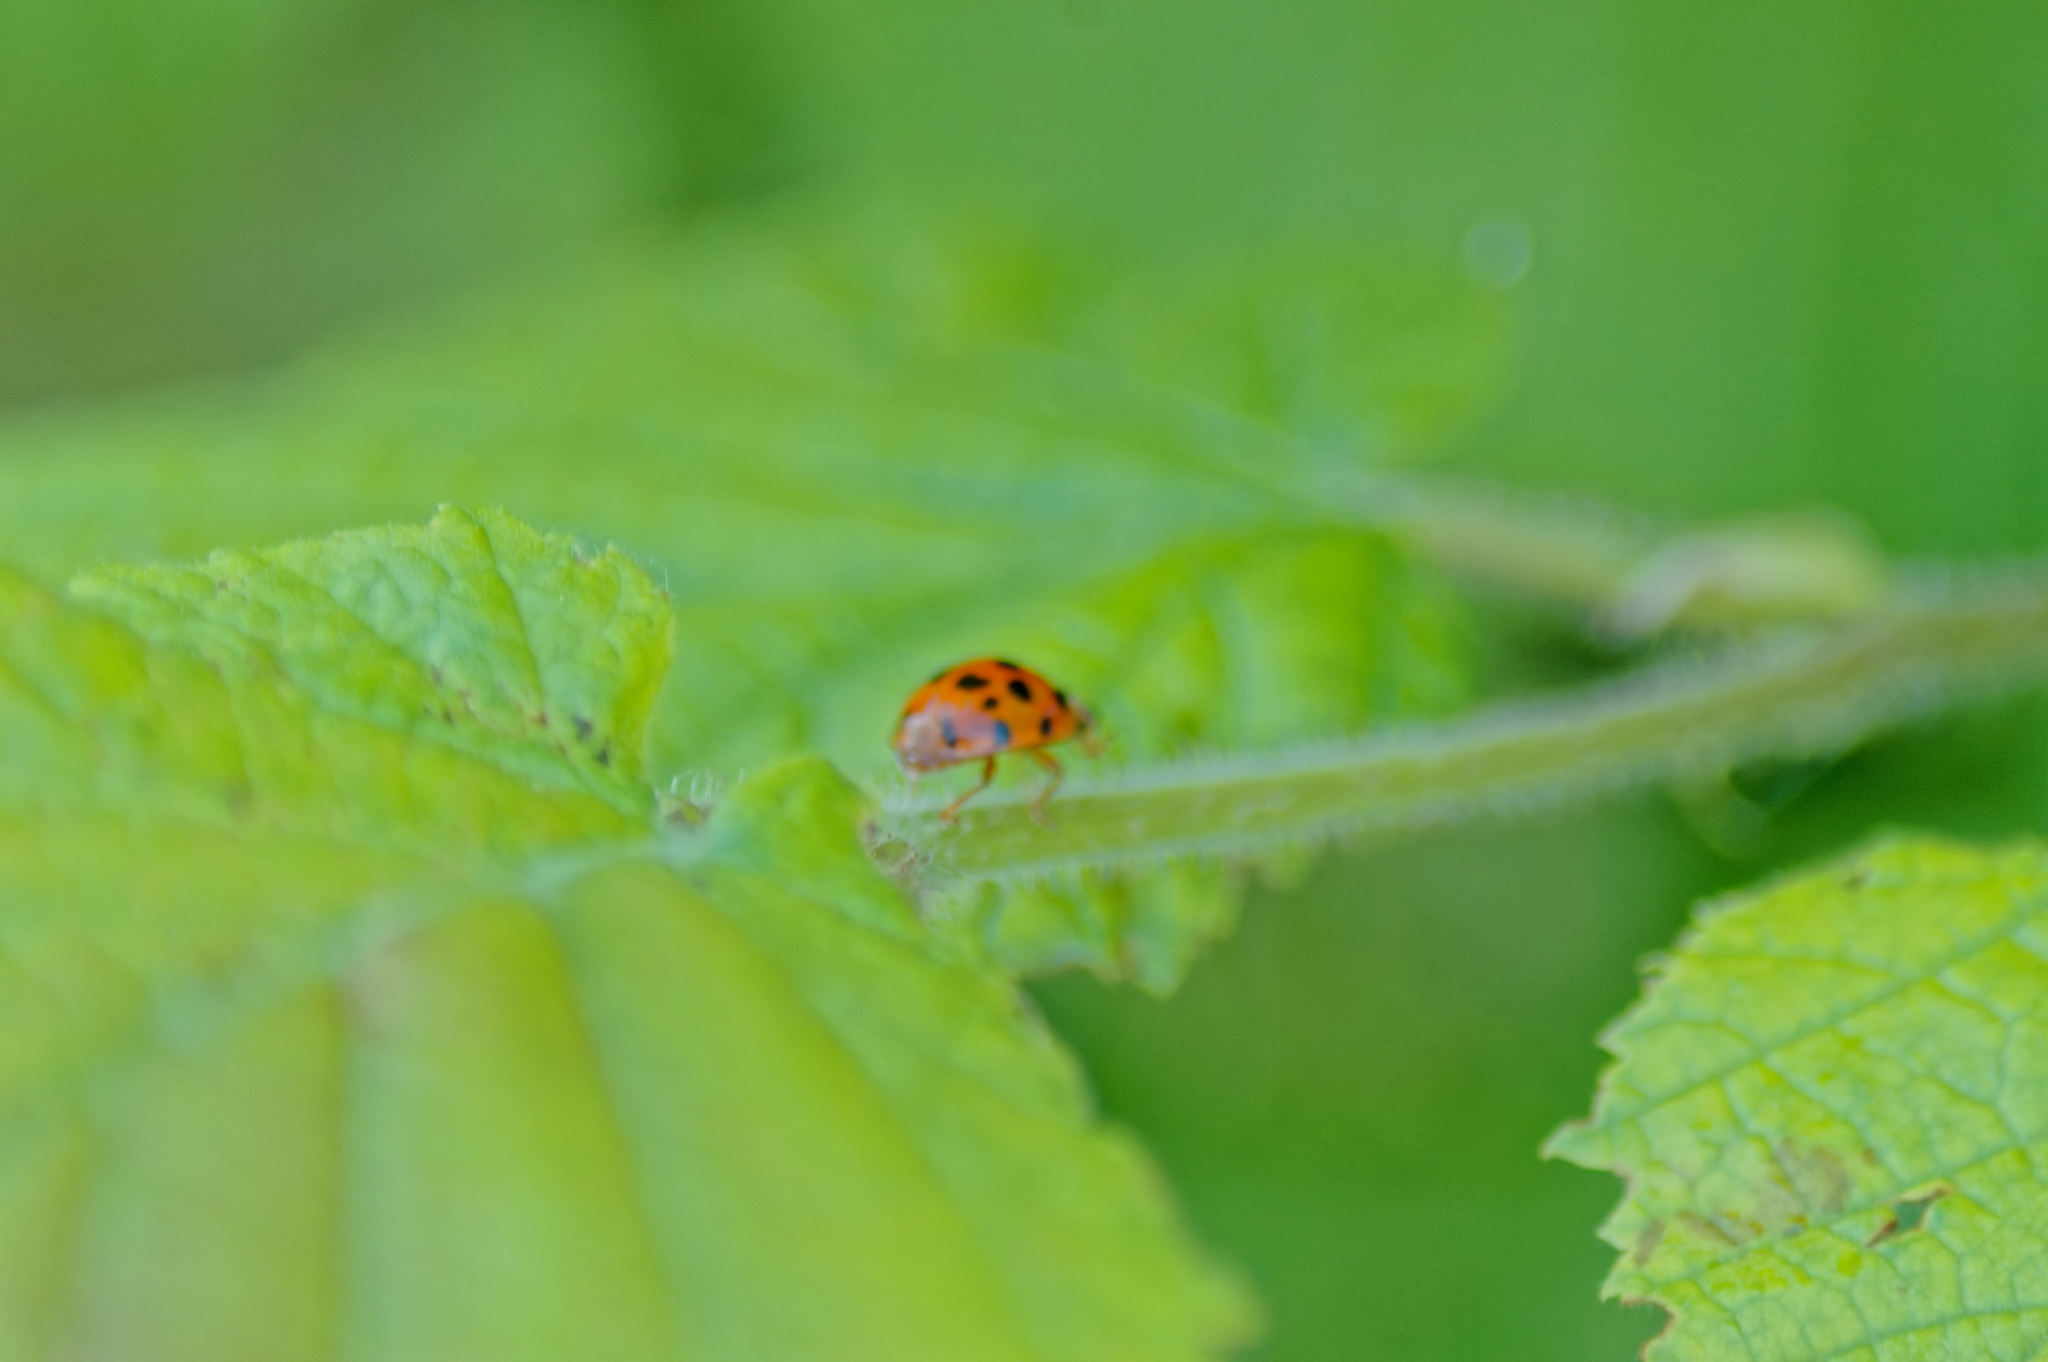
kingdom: Animalia
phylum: Arthropoda
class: Insecta
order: Coleoptera
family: Coccinellidae
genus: Harmonia
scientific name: Harmonia axyridis
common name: Harlequin ladybird
